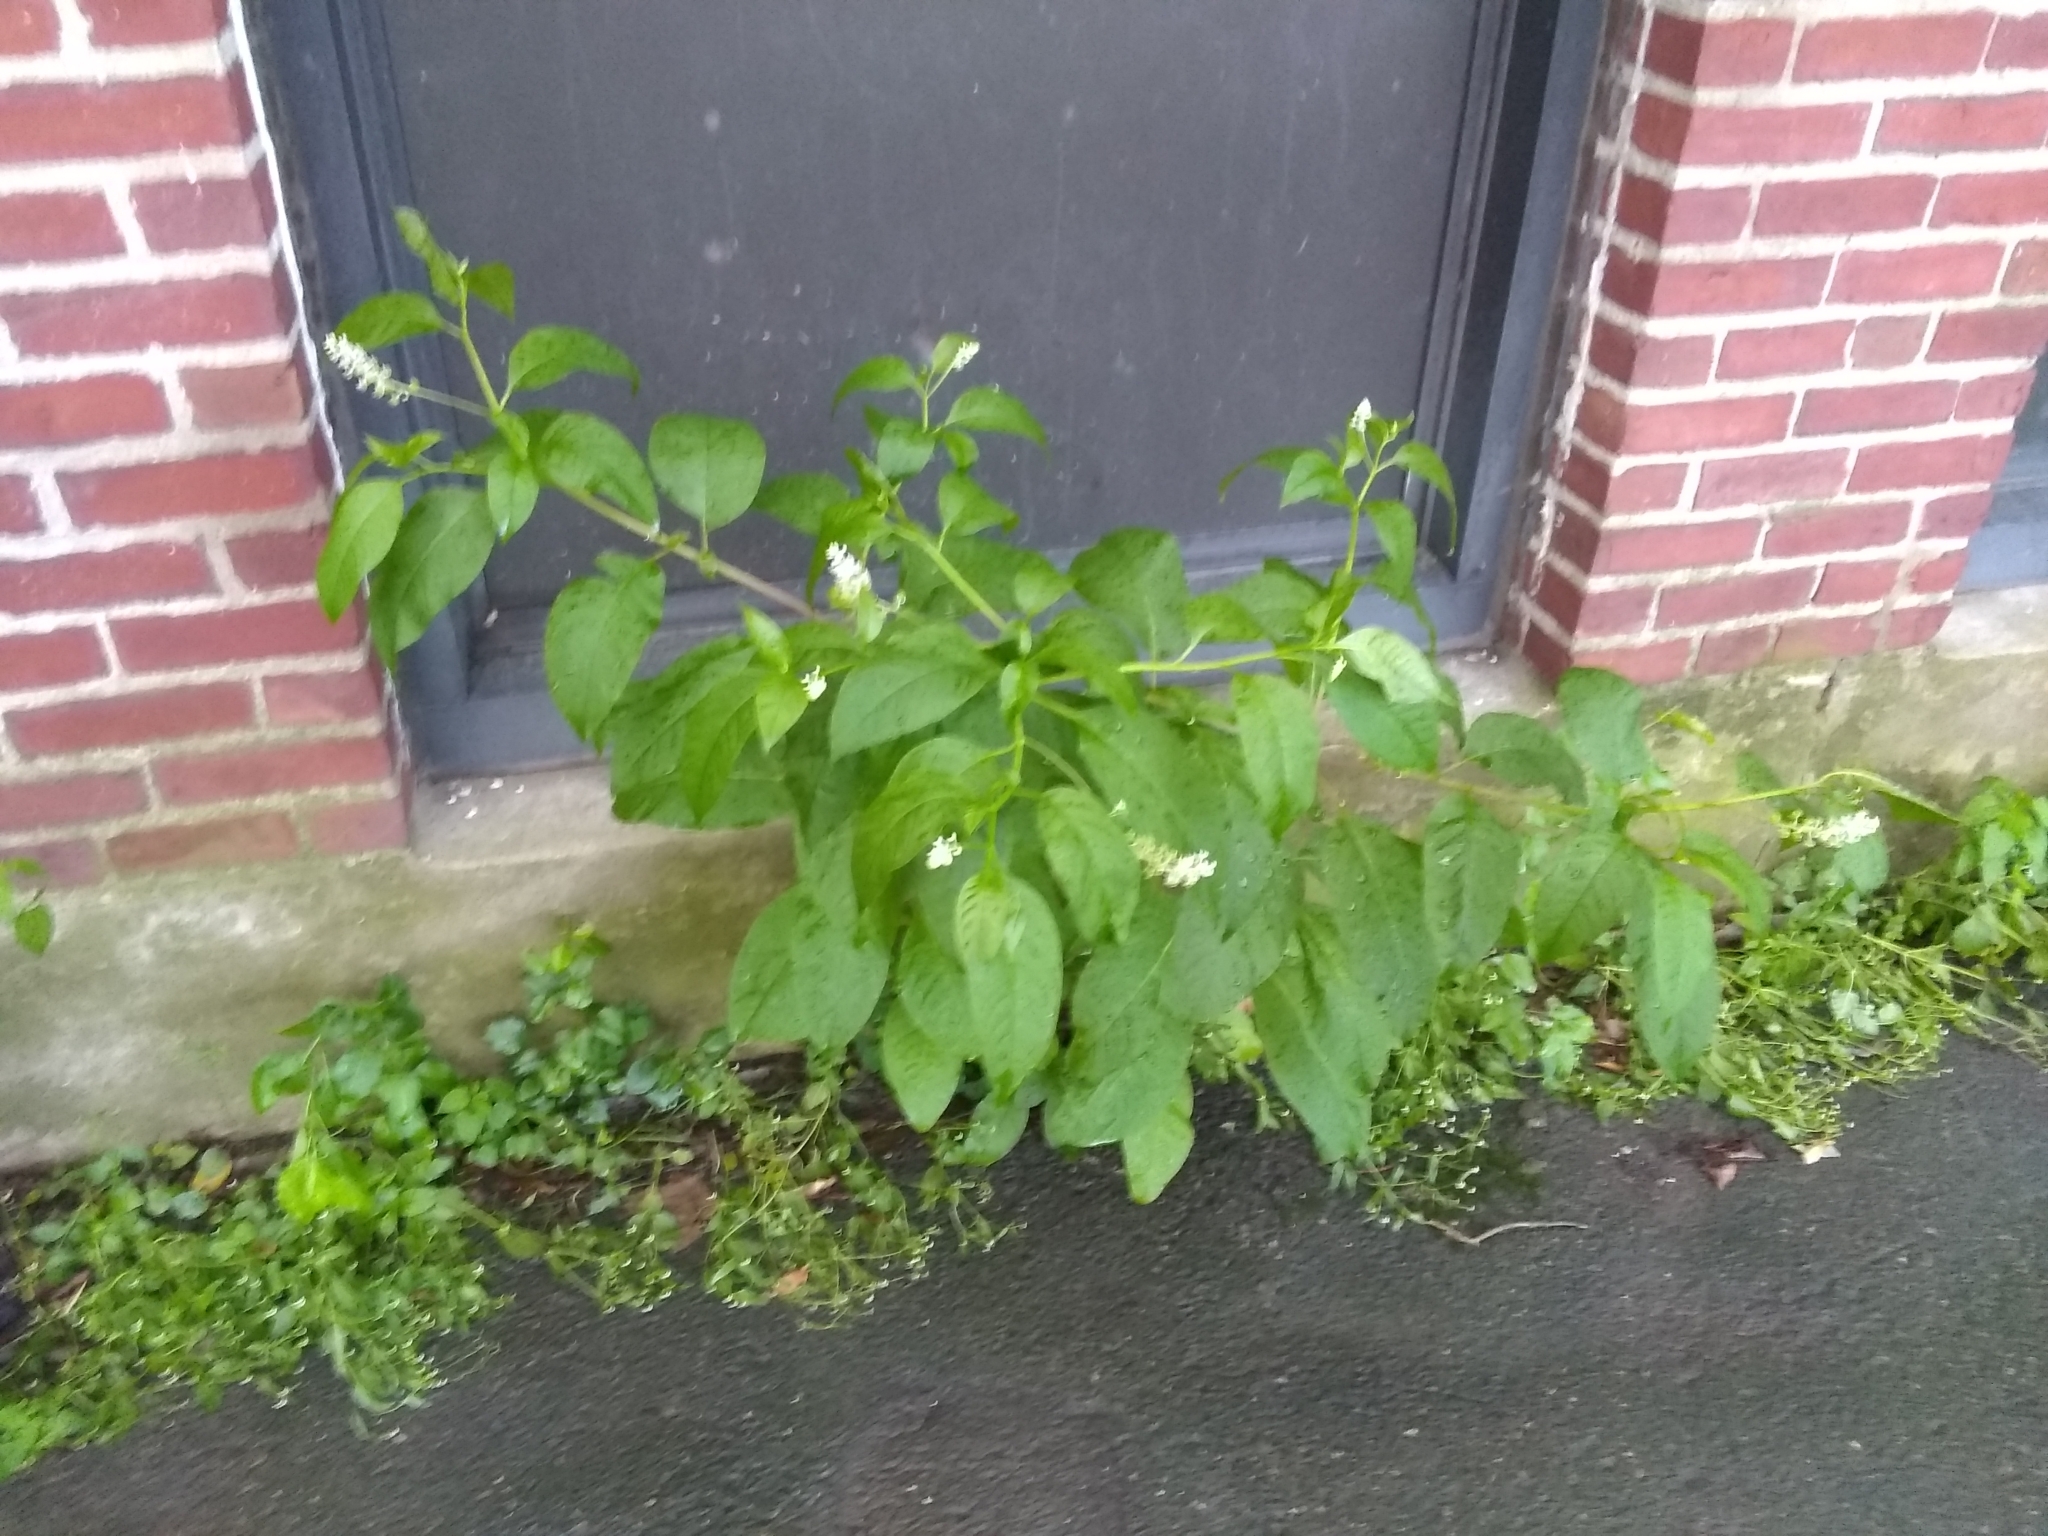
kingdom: Plantae
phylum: Tracheophyta
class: Magnoliopsida
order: Caryophyllales
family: Phytolaccaceae
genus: Phytolacca
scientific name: Phytolacca americana
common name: American pokeweed
